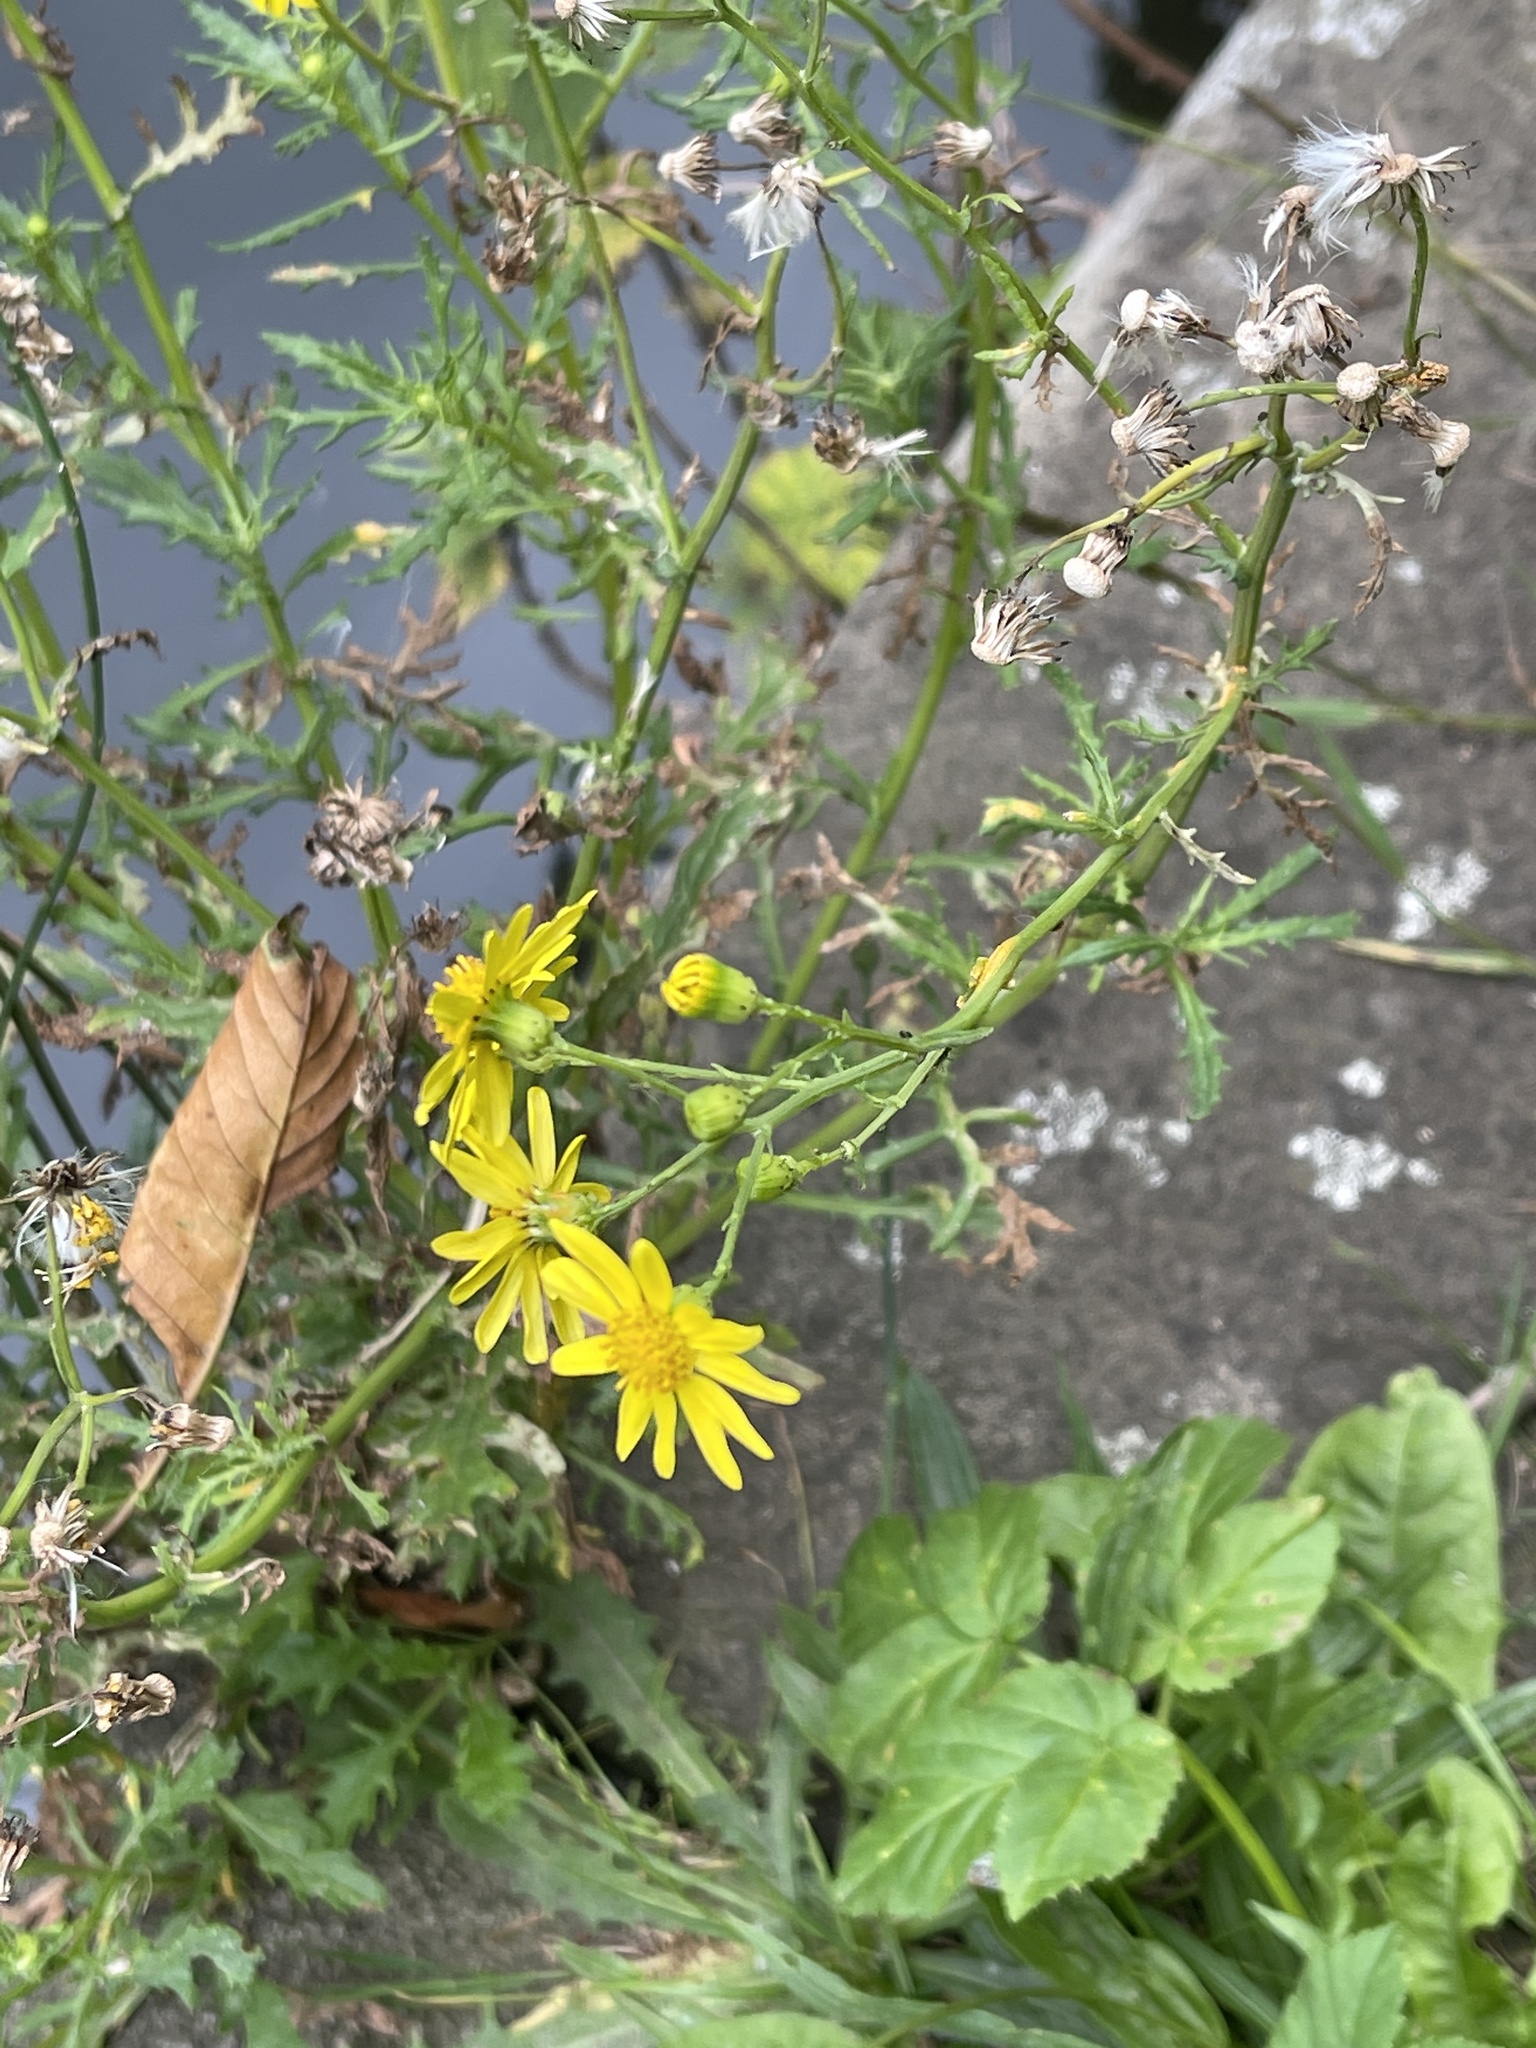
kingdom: Plantae
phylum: Tracheophyta
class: Magnoliopsida
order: Asterales
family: Asteraceae
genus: Senecio
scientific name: Senecio inaequidens
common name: Narrow-leaved ragwort
